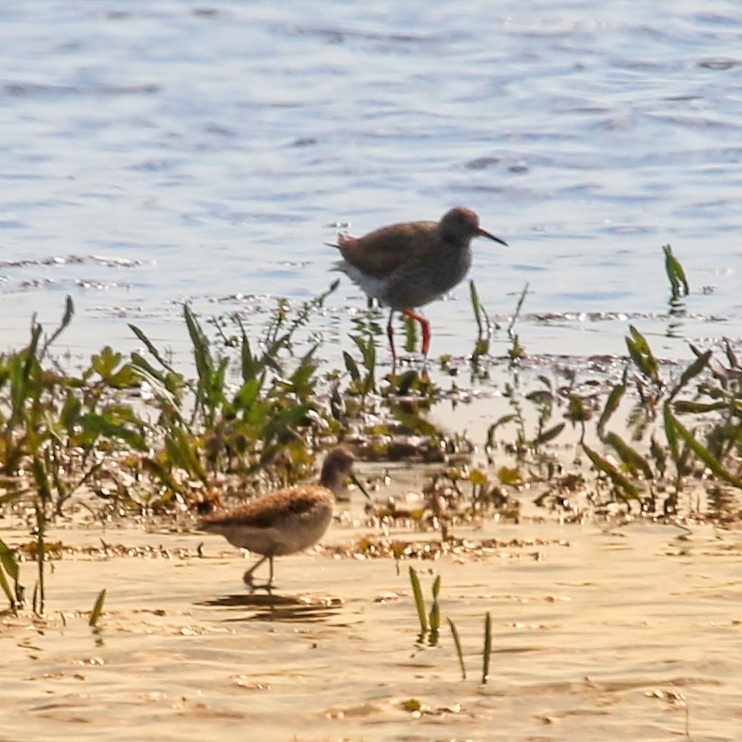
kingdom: Animalia
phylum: Chordata
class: Aves
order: Charadriiformes
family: Scolopacidae
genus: Tringa
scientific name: Tringa totanus
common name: Common redshank
